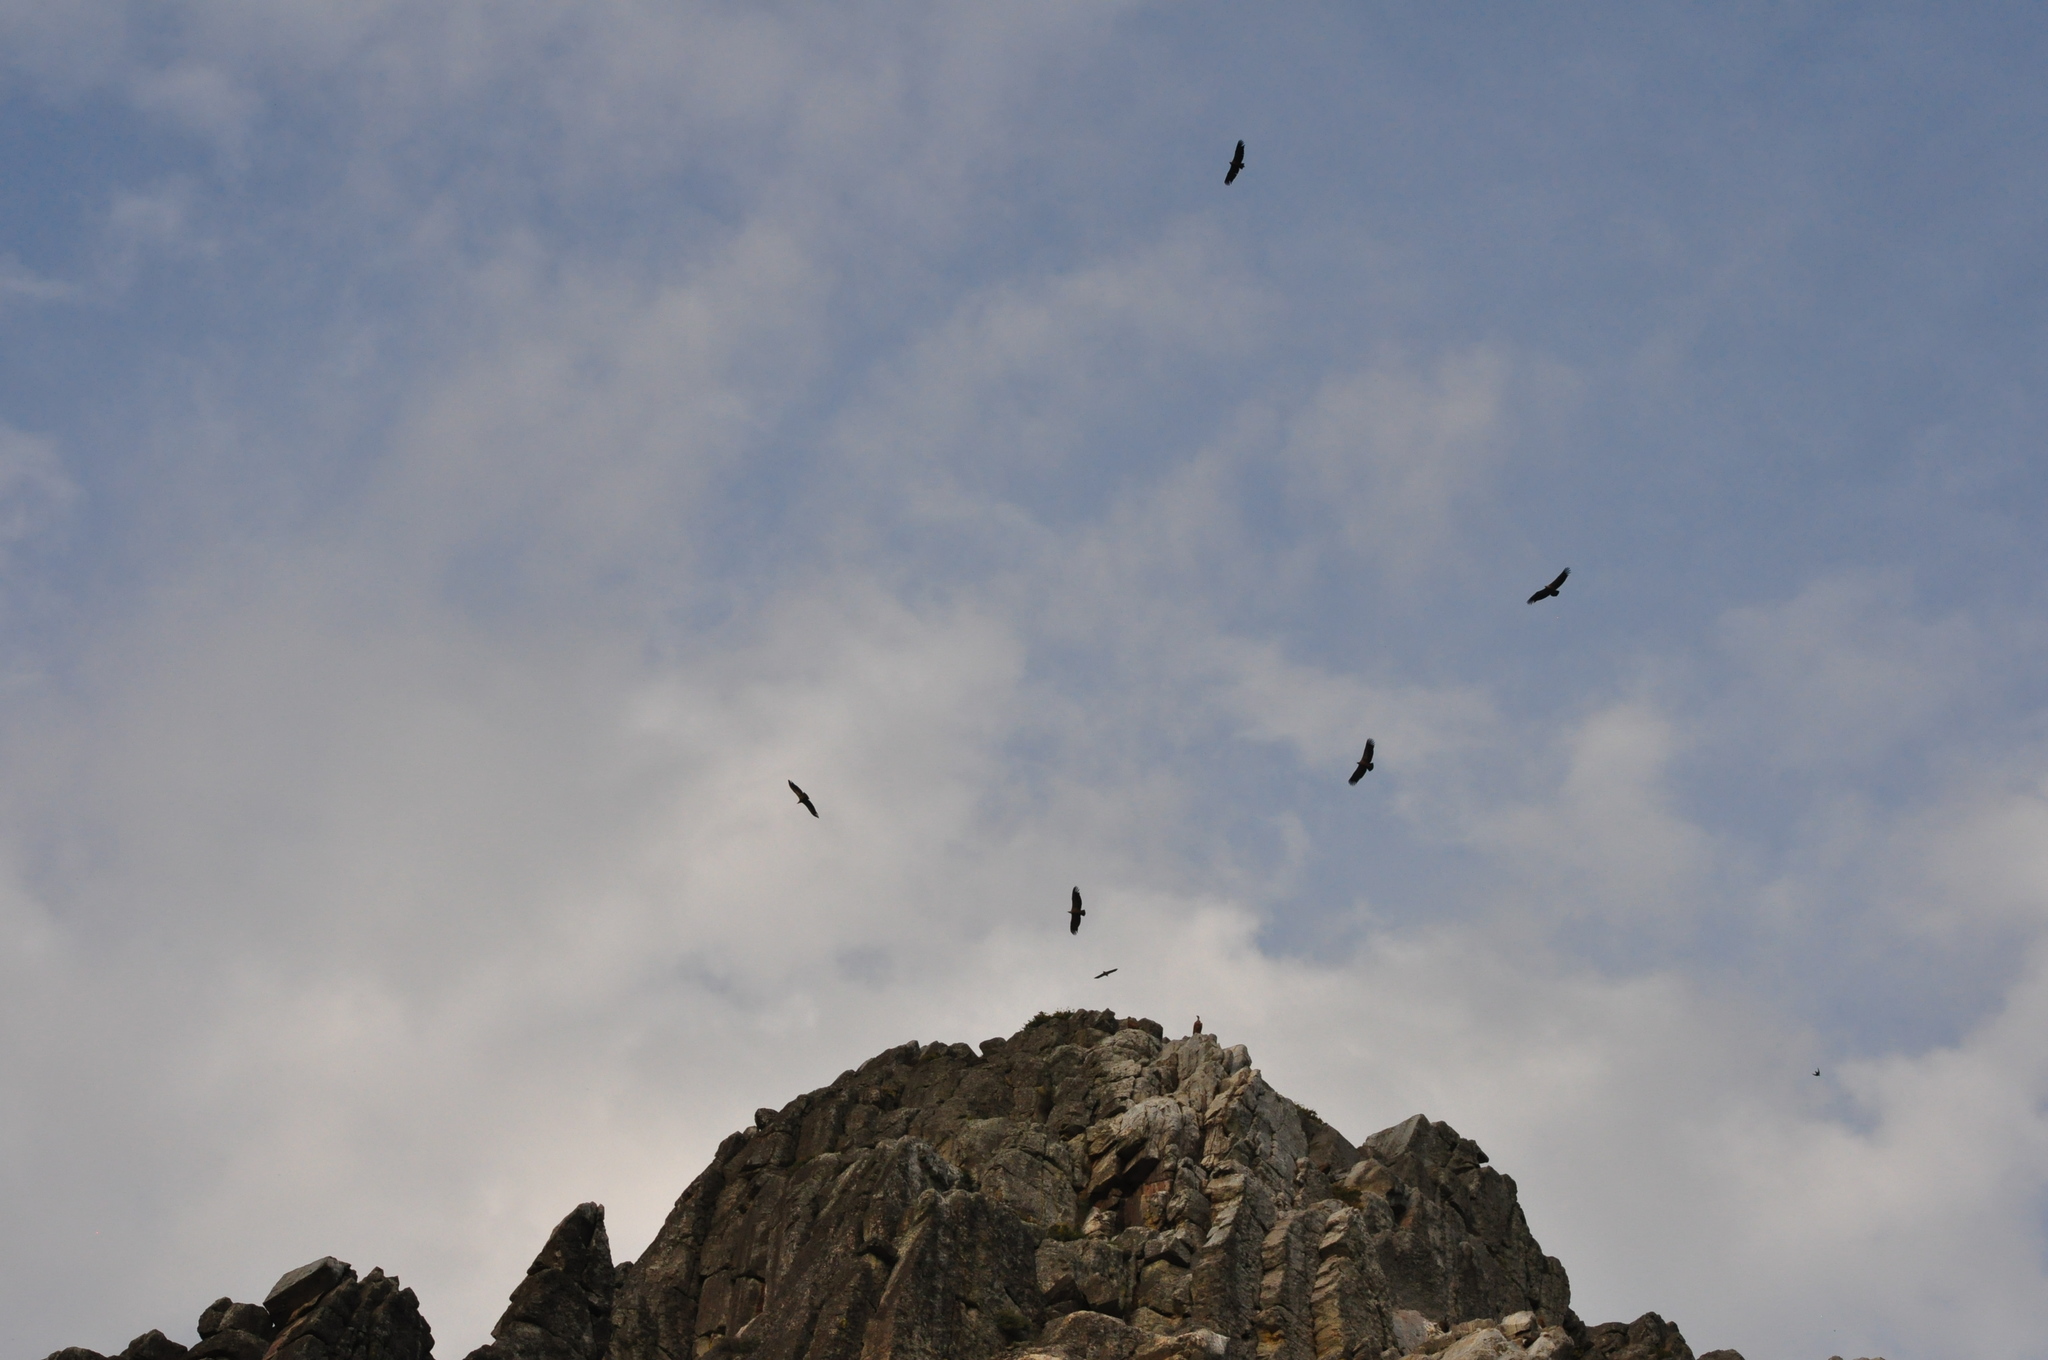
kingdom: Animalia
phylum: Chordata
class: Aves
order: Accipitriformes
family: Accipitridae
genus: Gyps
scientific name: Gyps fulvus
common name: Griffon vulture
